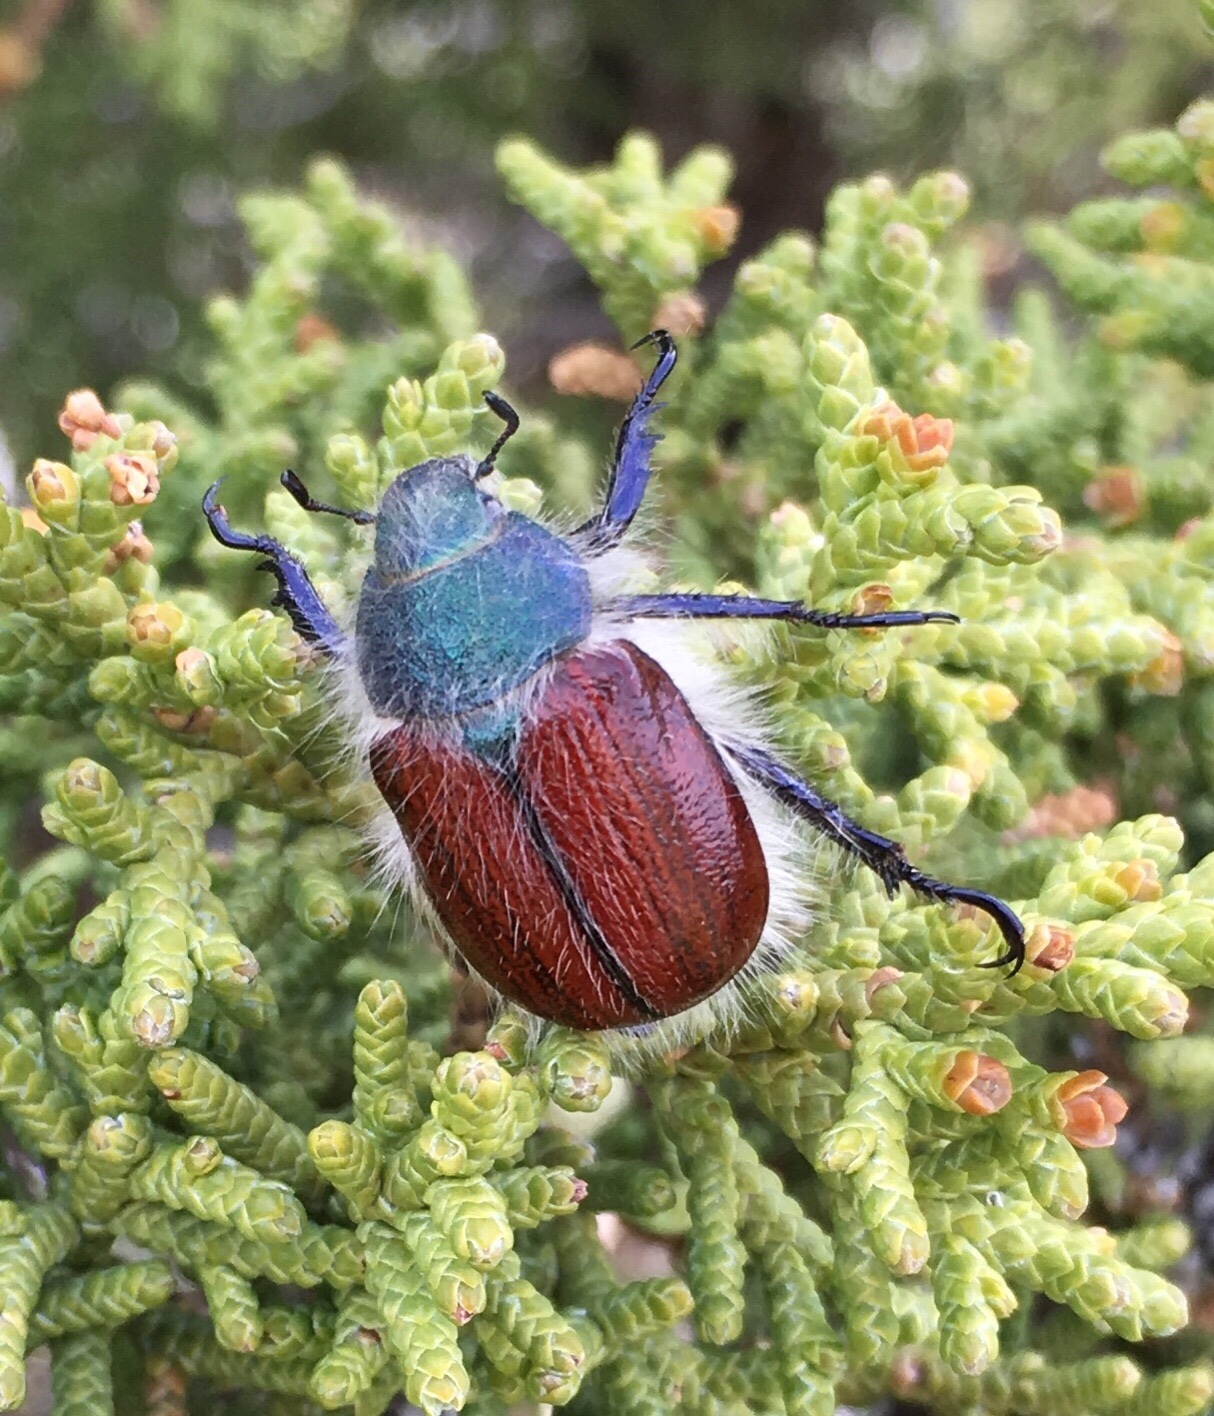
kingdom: Animalia
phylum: Arthropoda
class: Insecta
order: Coleoptera
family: Scarabaeidae
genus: Paracotalpa
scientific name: Paracotalpa granicollis
